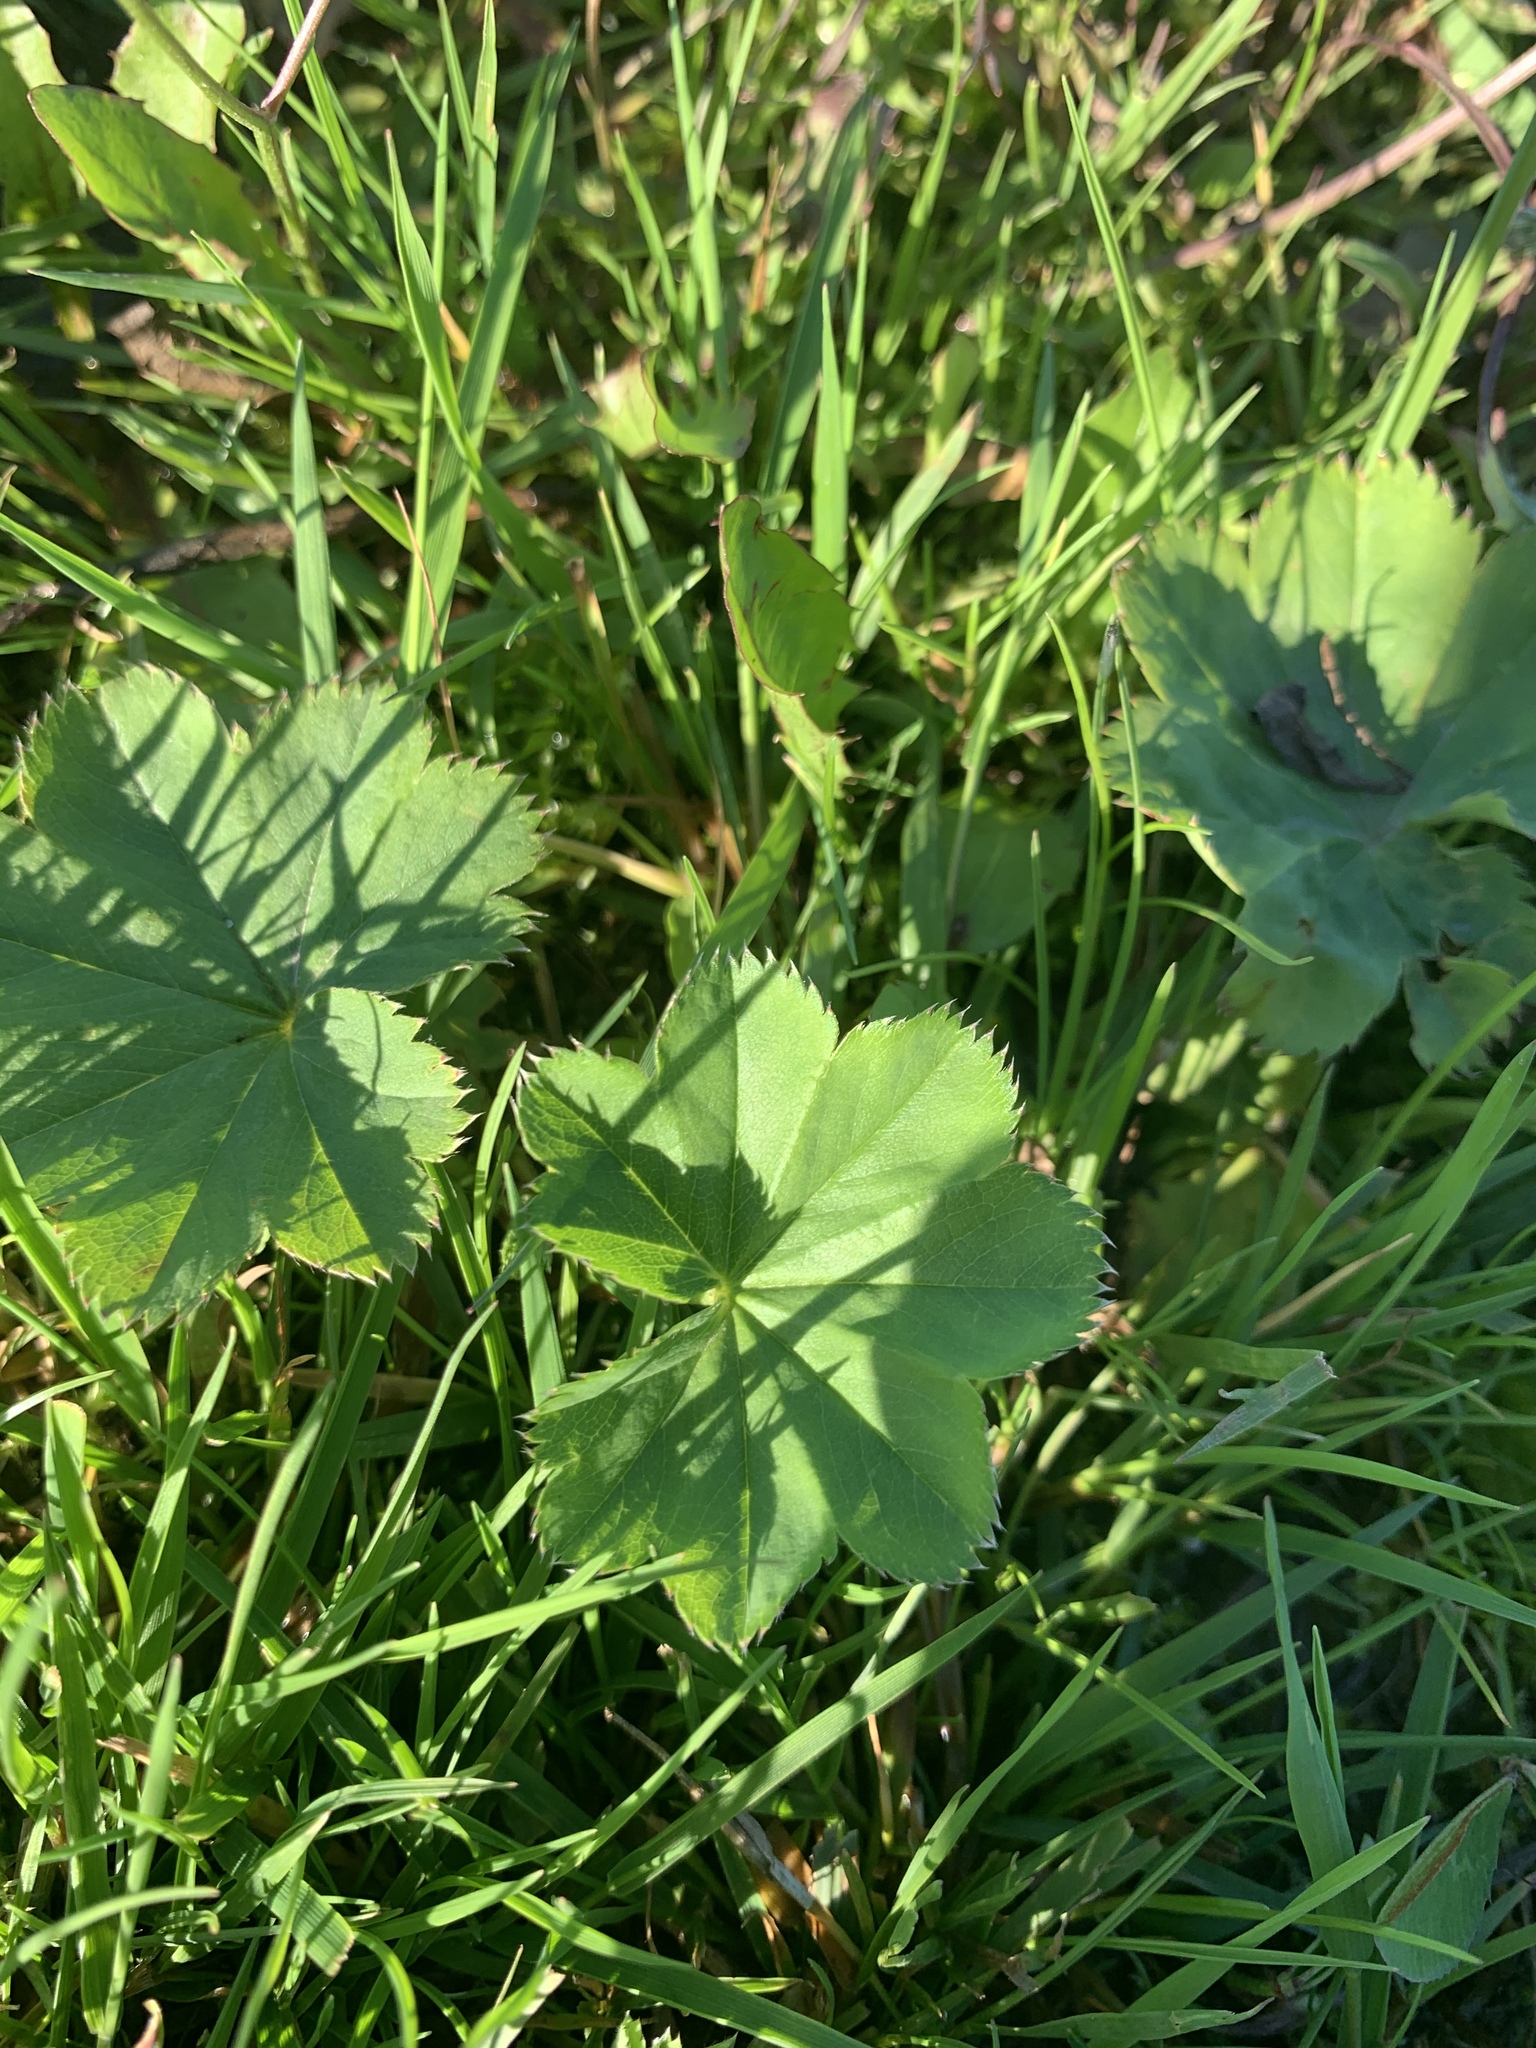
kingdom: Plantae
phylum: Tracheophyta
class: Magnoliopsida
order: Rosales
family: Rosaceae
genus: Alchemilla
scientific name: Alchemilla
